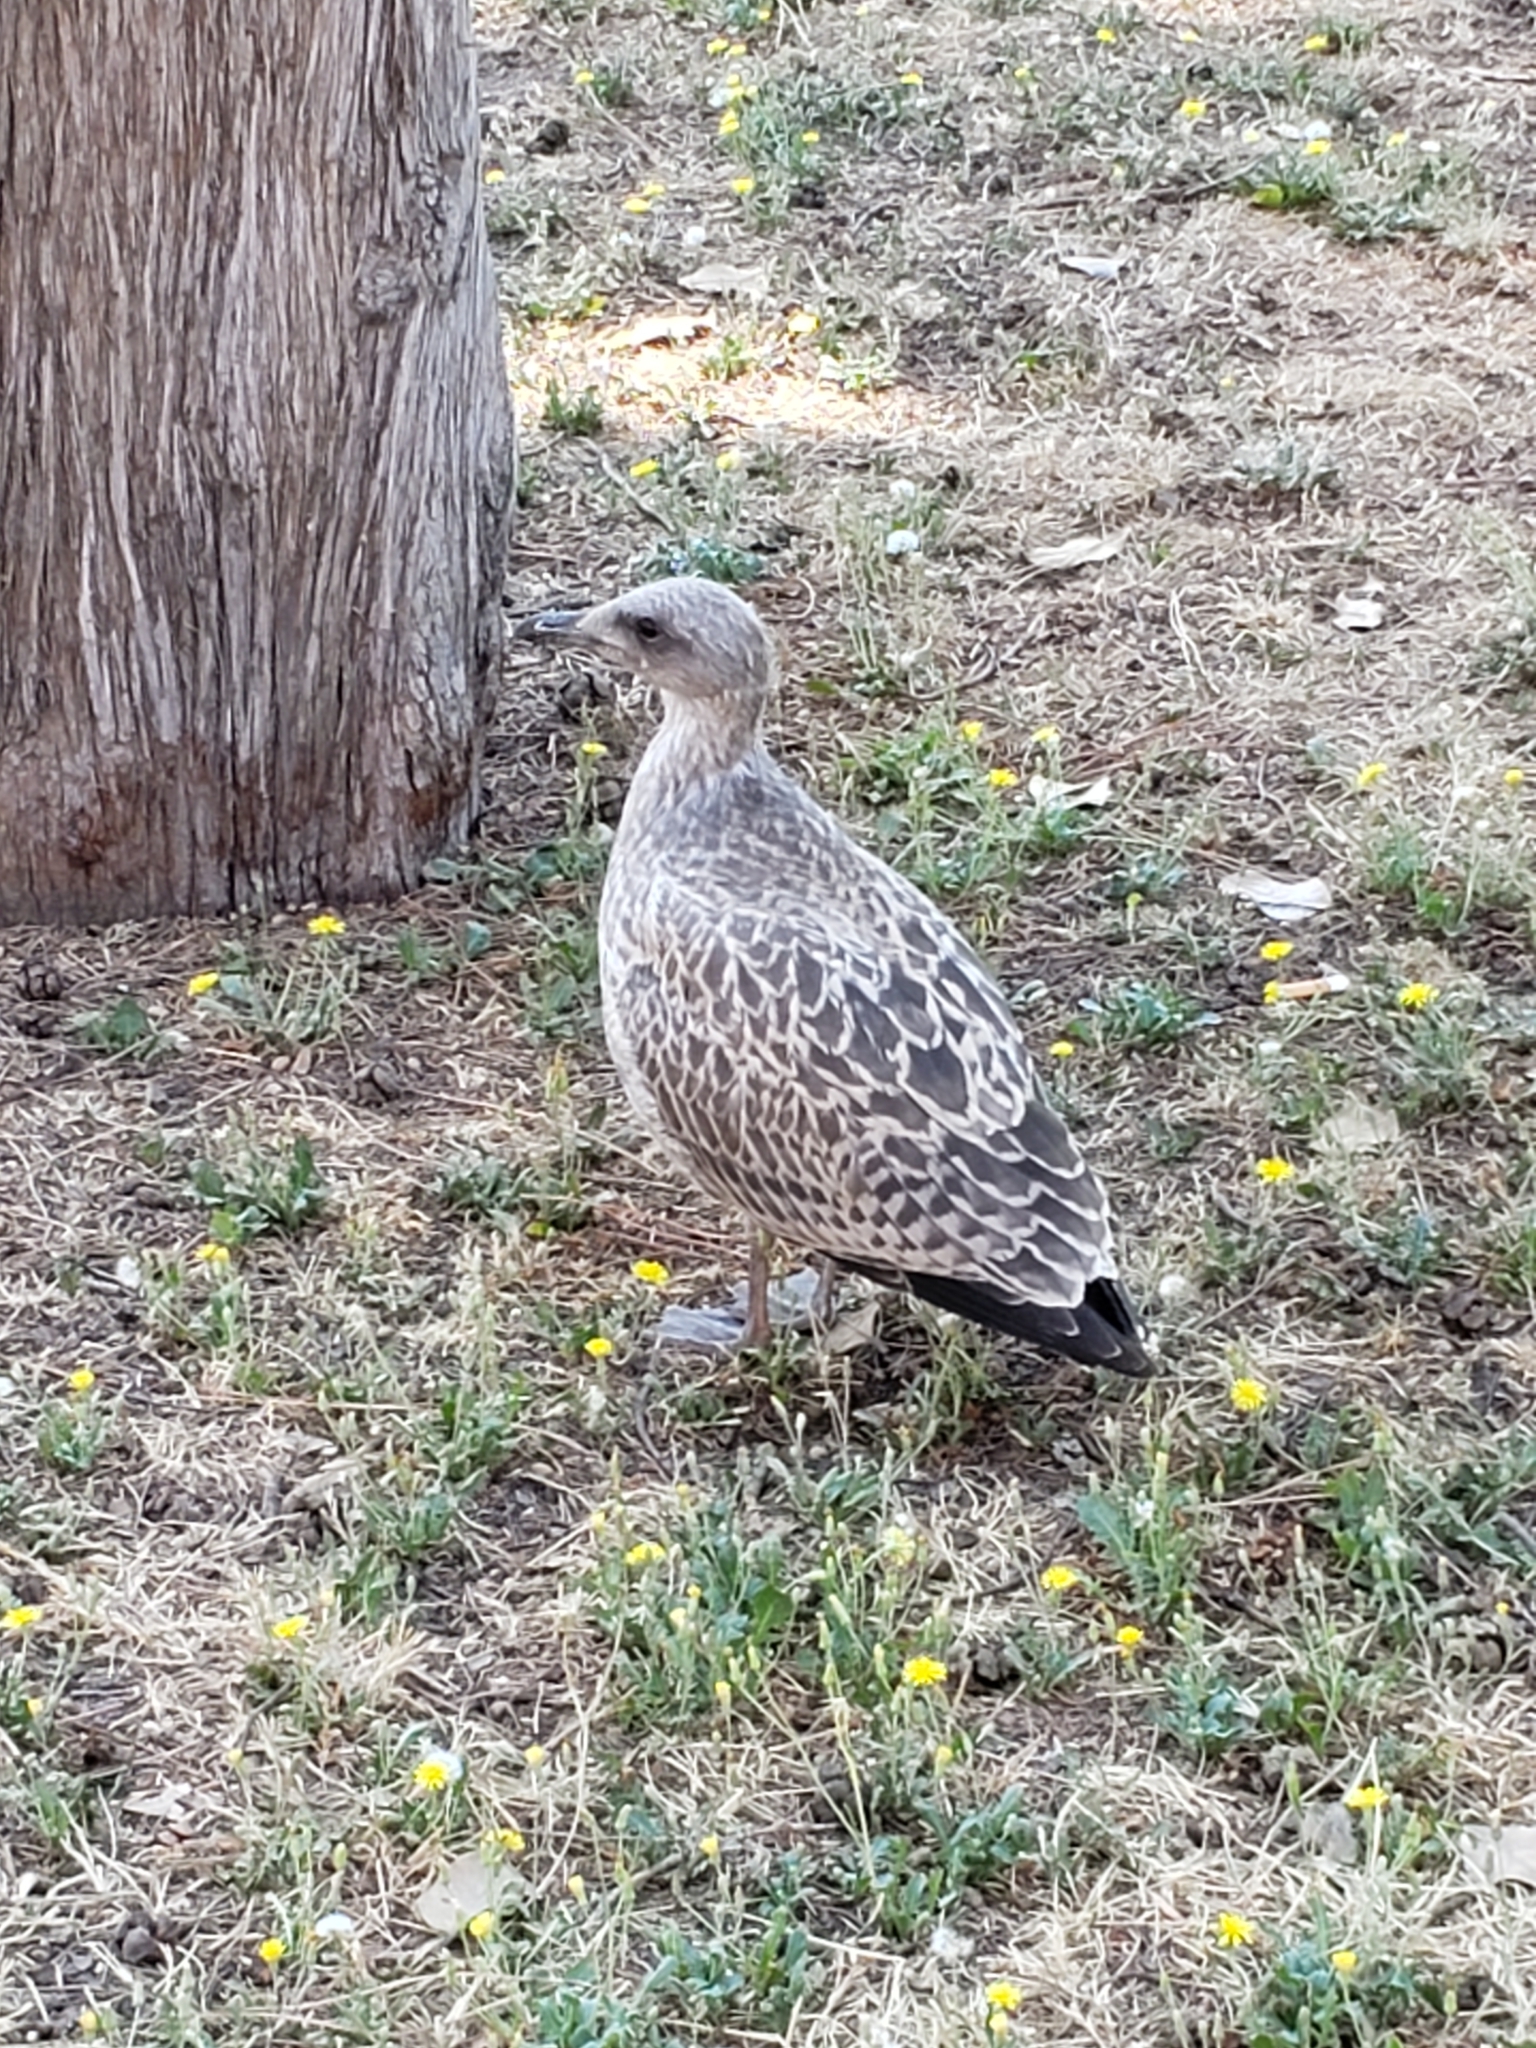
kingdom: Animalia
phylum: Chordata
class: Aves
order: Charadriiformes
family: Laridae
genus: Larus
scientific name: Larus michahellis
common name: Yellow-legged gull
